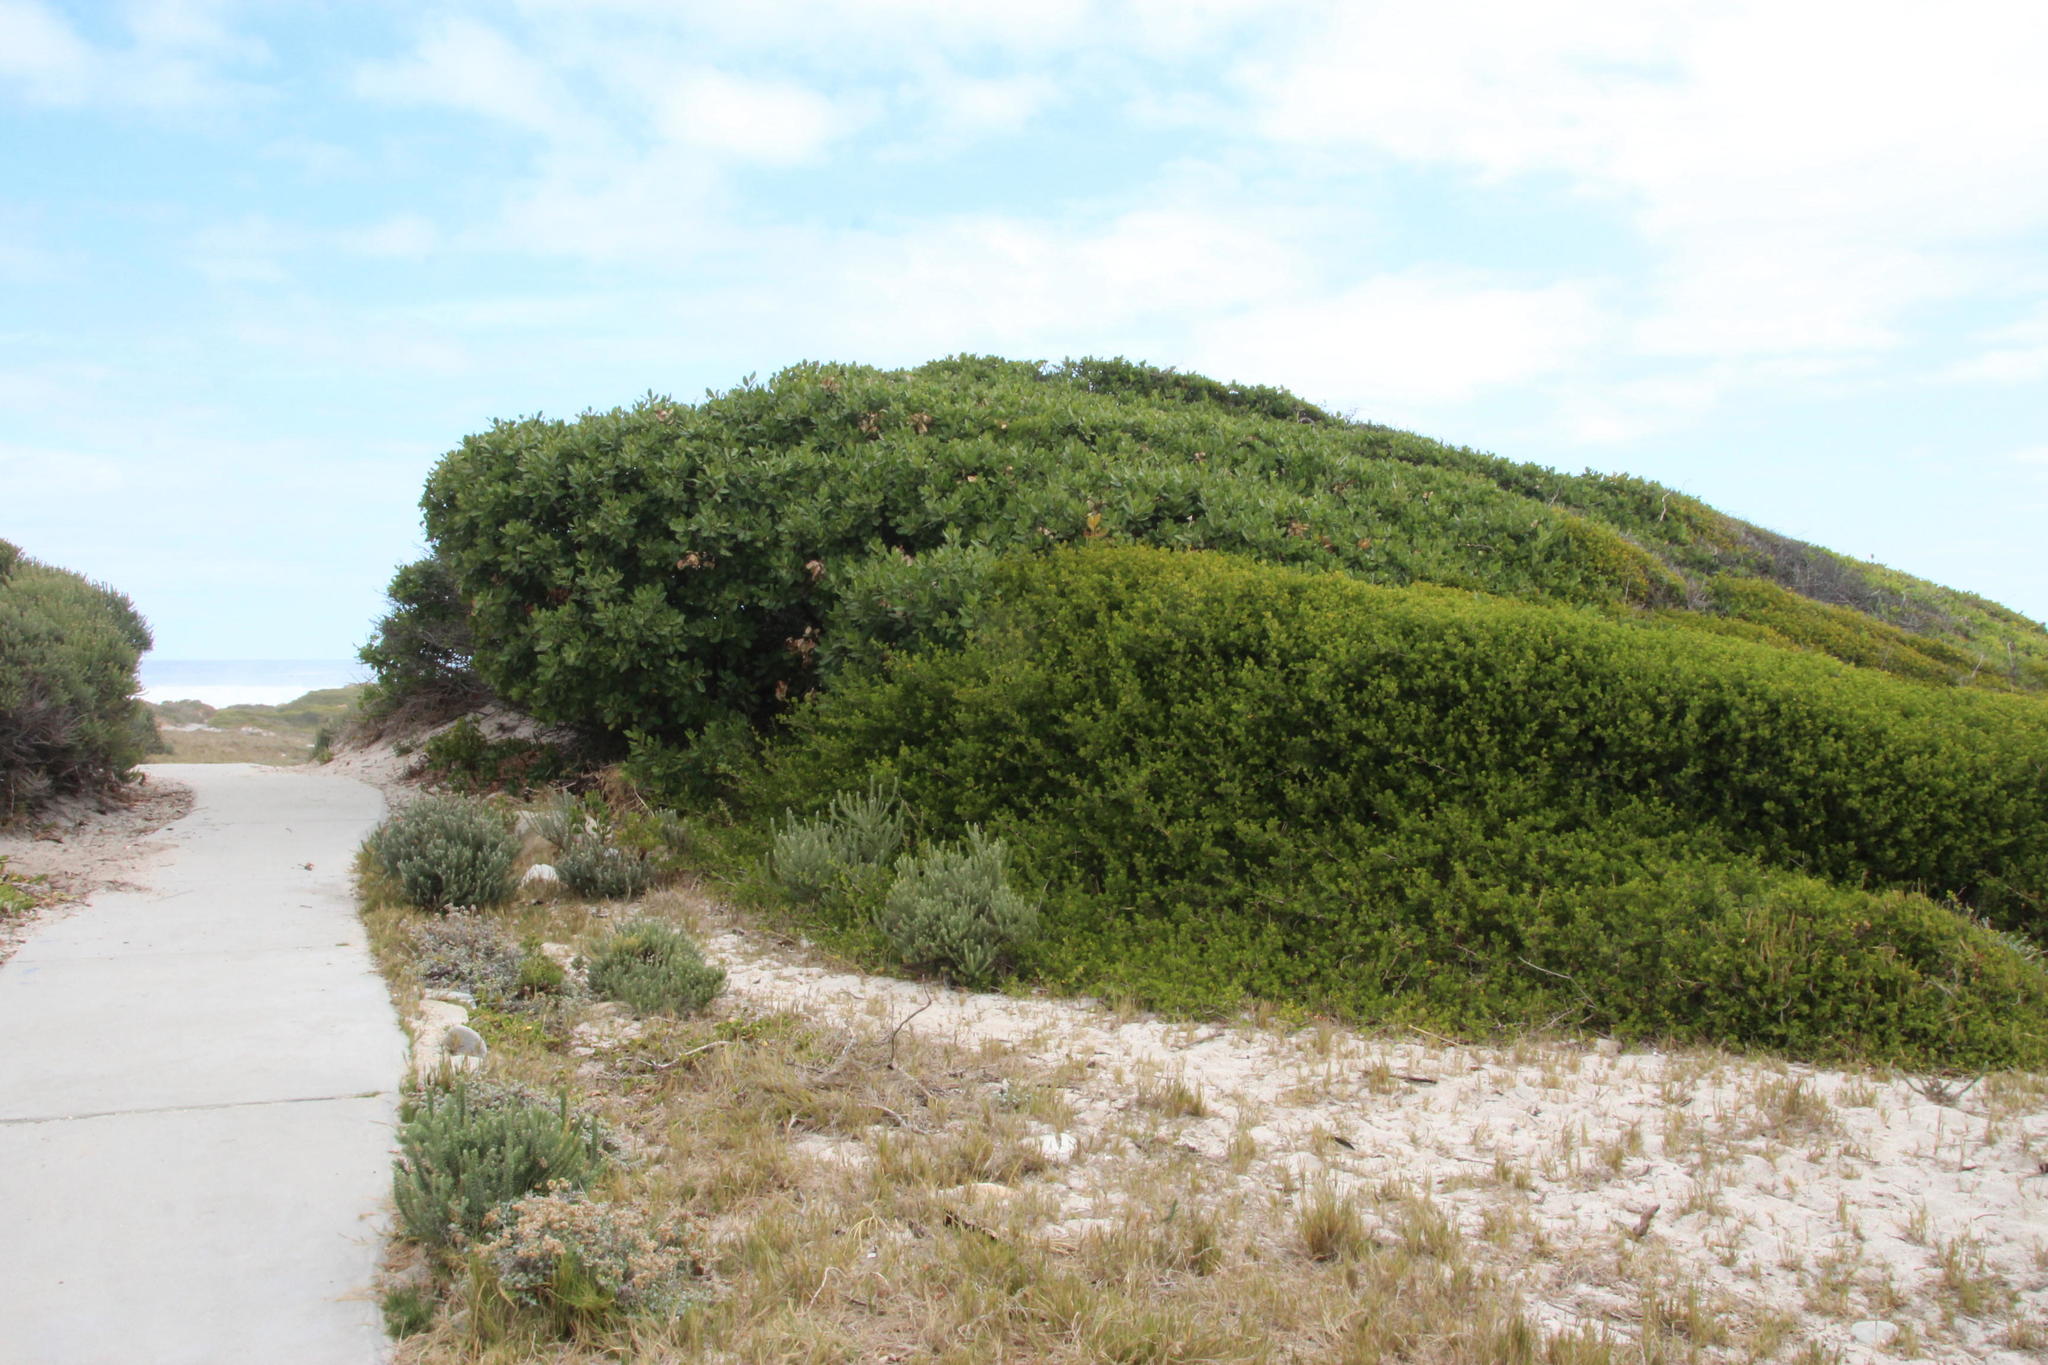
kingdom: Plantae
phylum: Tracheophyta
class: Magnoliopsida
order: Ericales
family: Sapotaceae
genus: Sideroxylon
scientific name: Sideroxylon inerme
